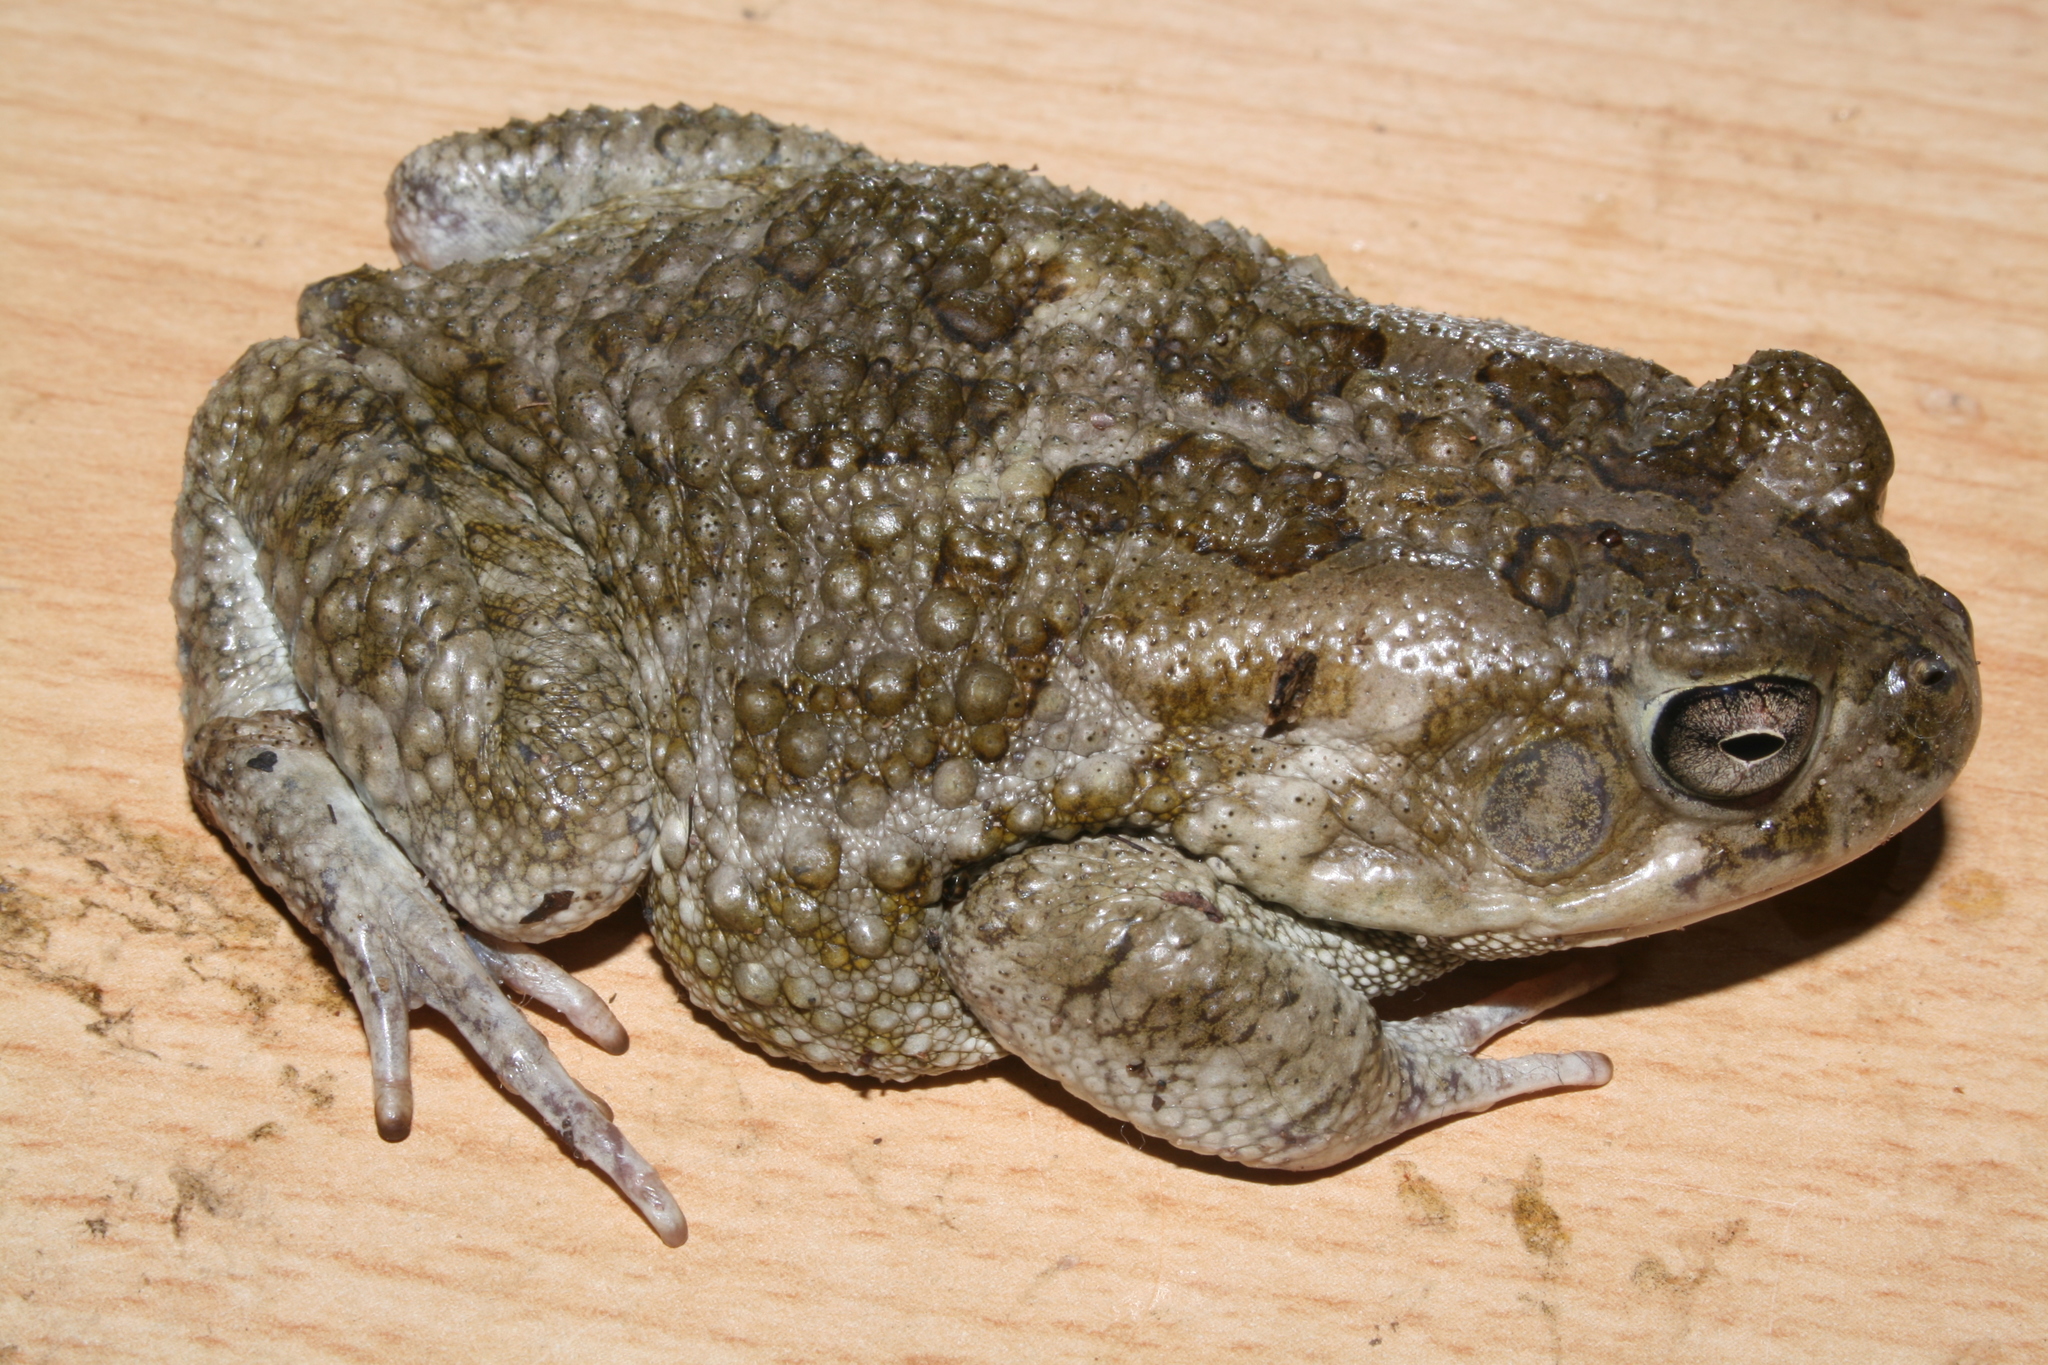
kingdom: Animalia
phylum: Chordata
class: Amphibia
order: Anura
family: Bufonidae
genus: Sclerophrys
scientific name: Sclerophrys regularis
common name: African common toad
